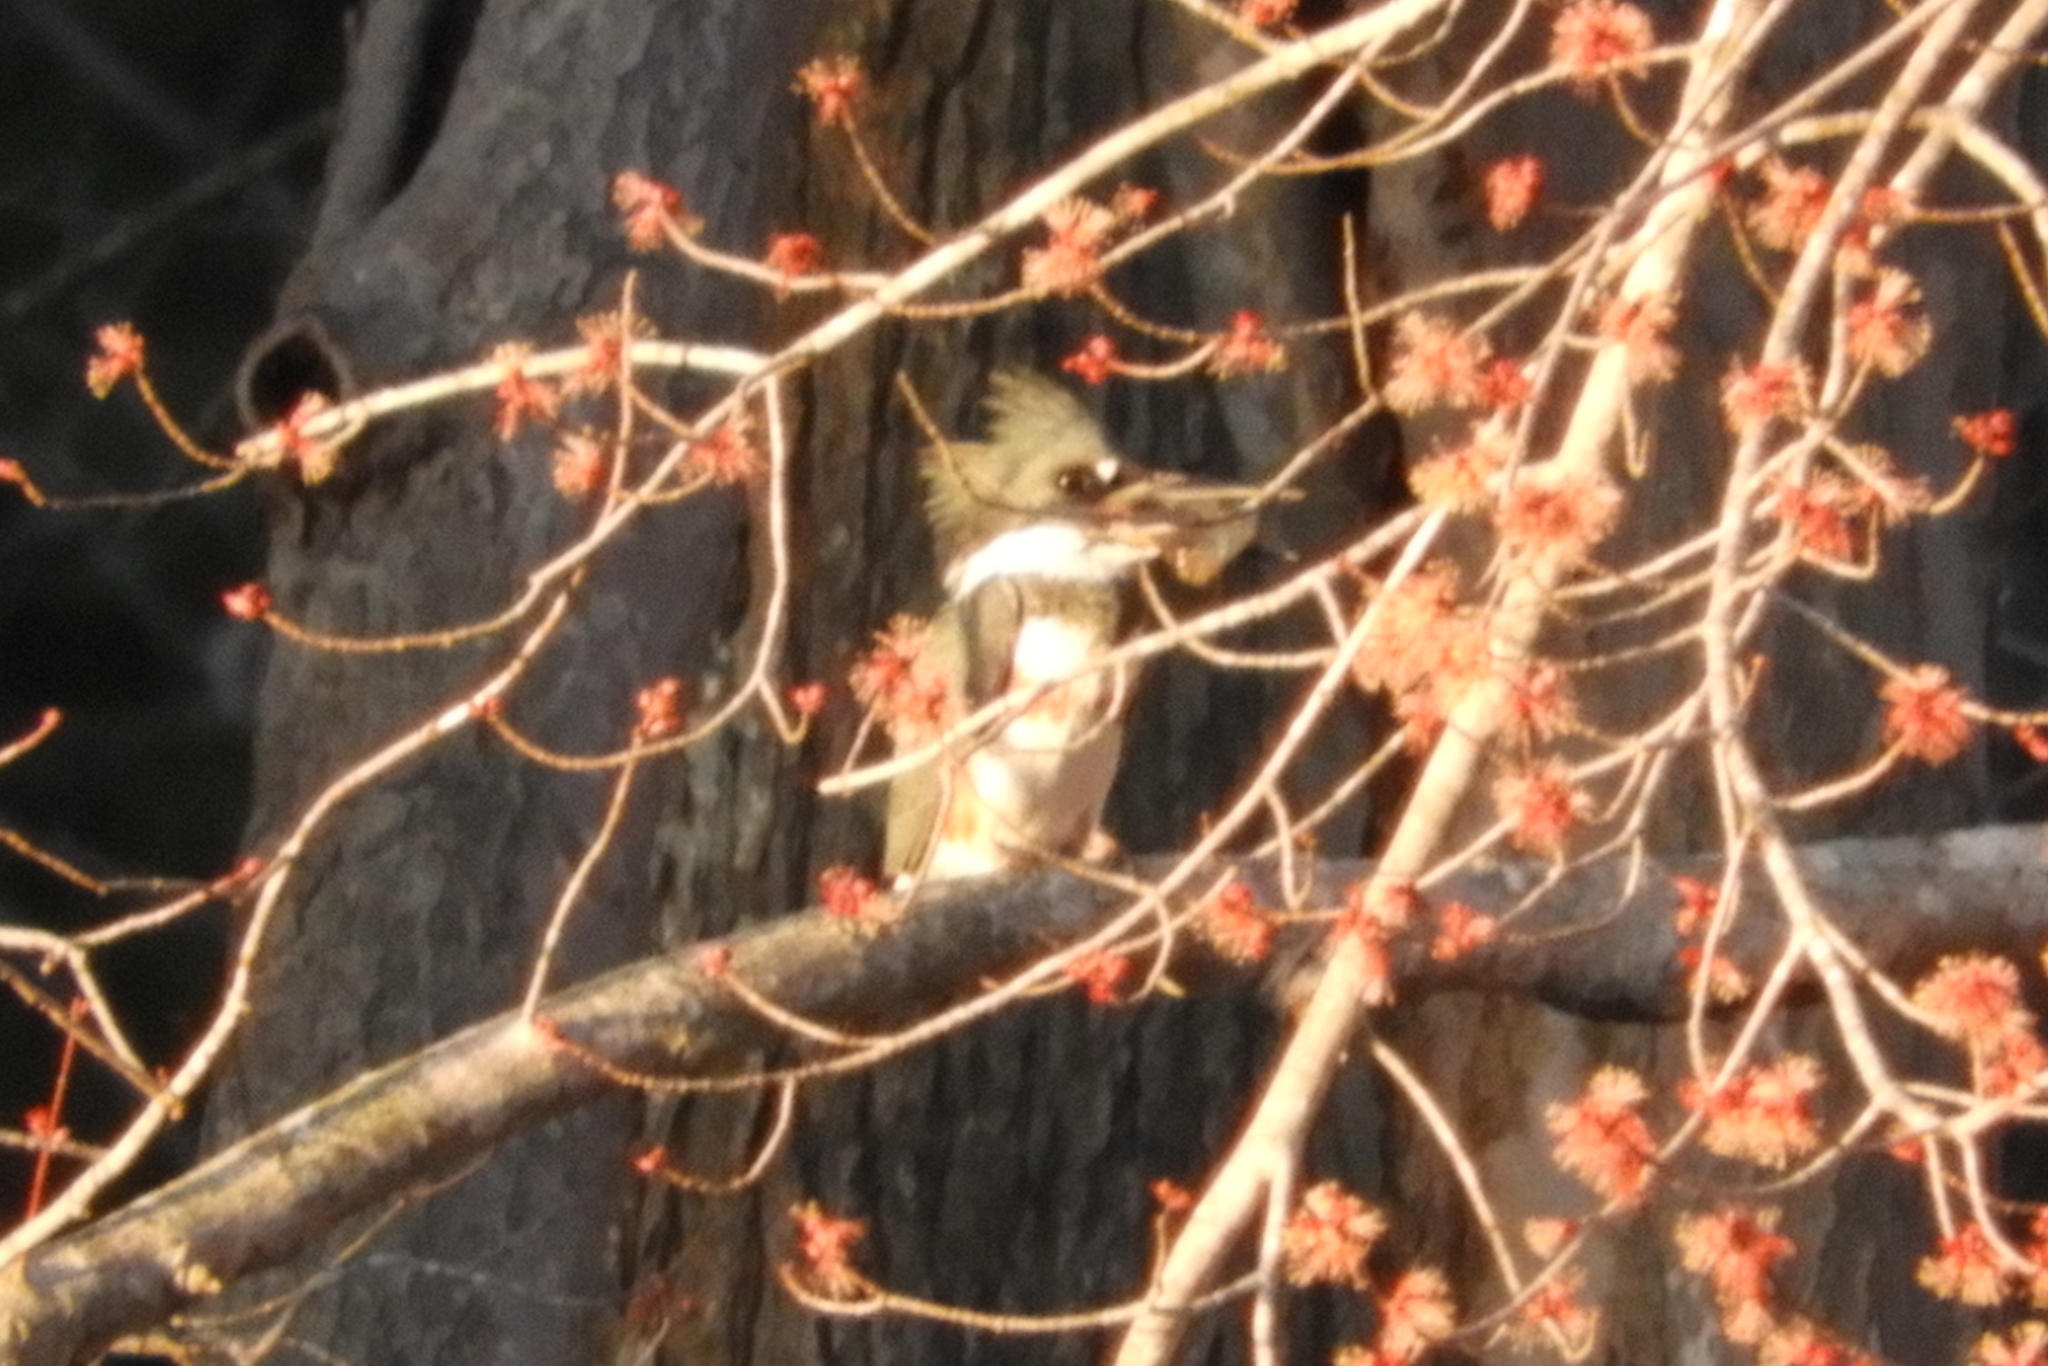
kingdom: Animalia
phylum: Chordata
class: Aves
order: Coraciiformes
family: Alcedinidae
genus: Megaceryle
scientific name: Megaceryle alcyon
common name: Belted kingfisher
